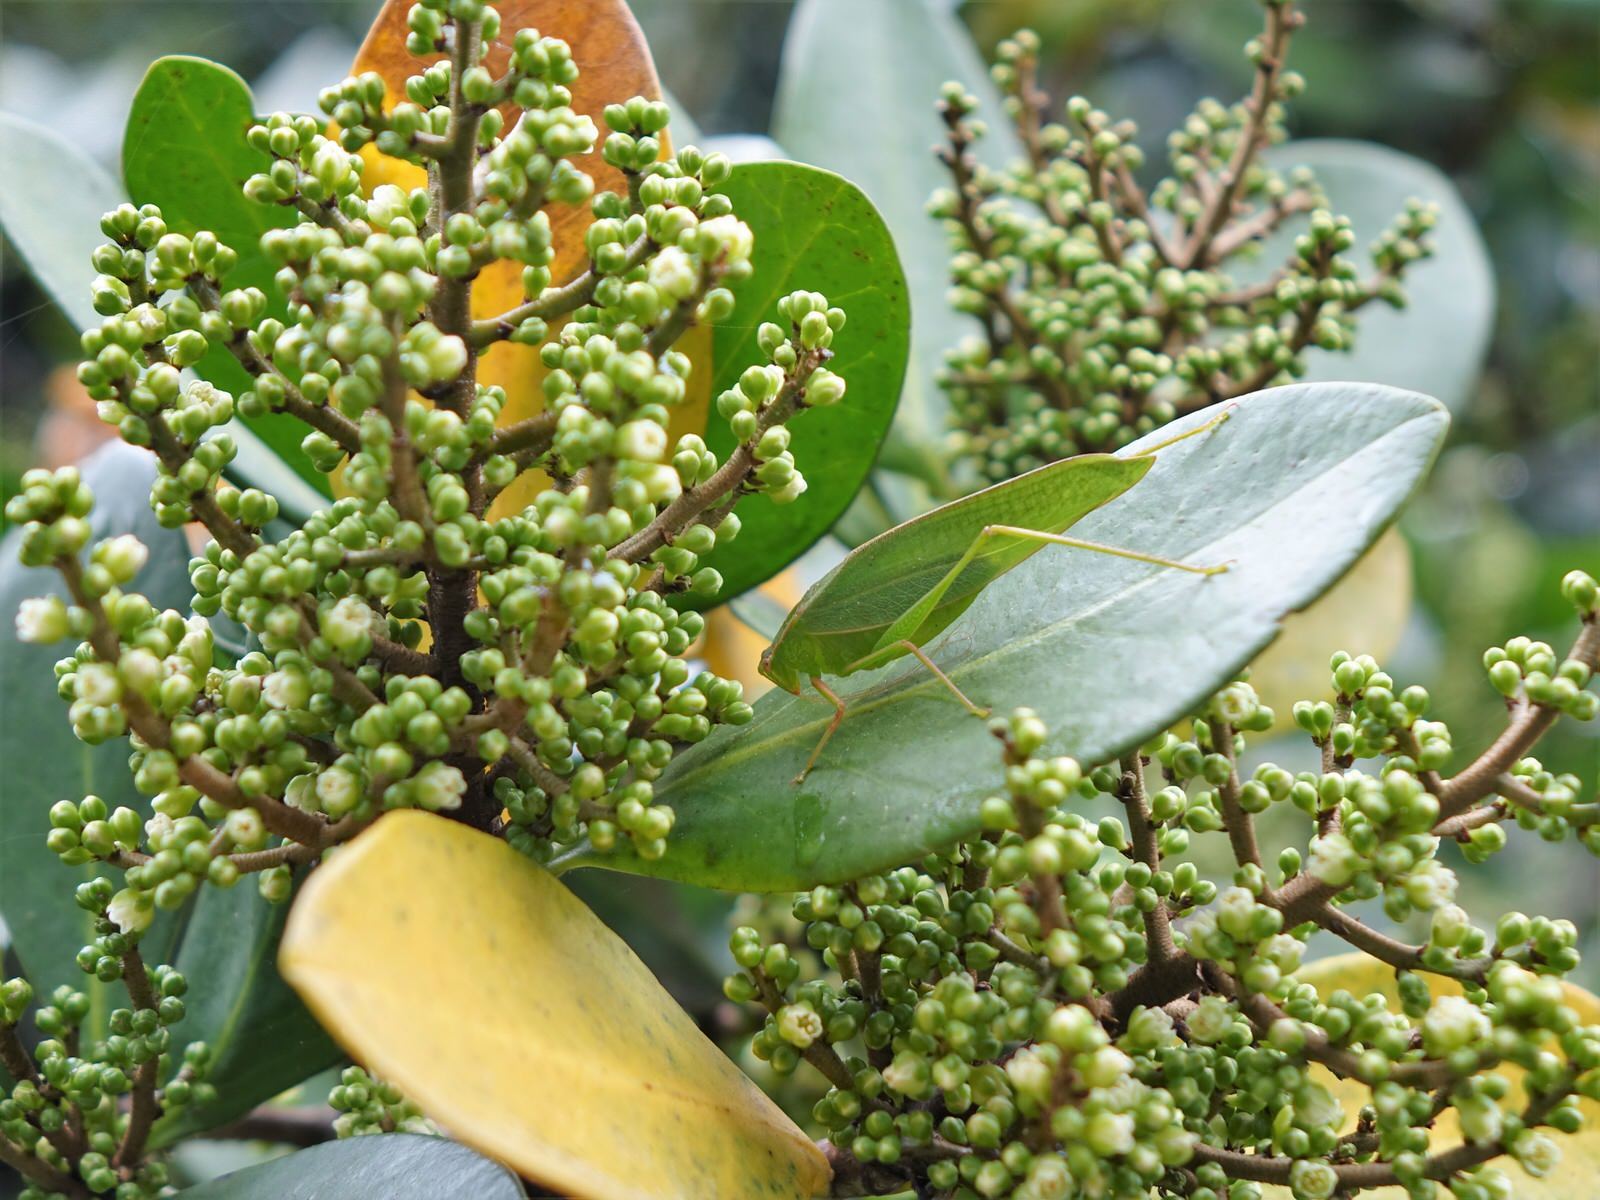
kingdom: Animalia
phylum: Arthropoda
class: Insecta
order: Orthoptera
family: Tettigoniidae
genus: Caedicia
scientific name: Caedicia simplex
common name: Common garden katydid
